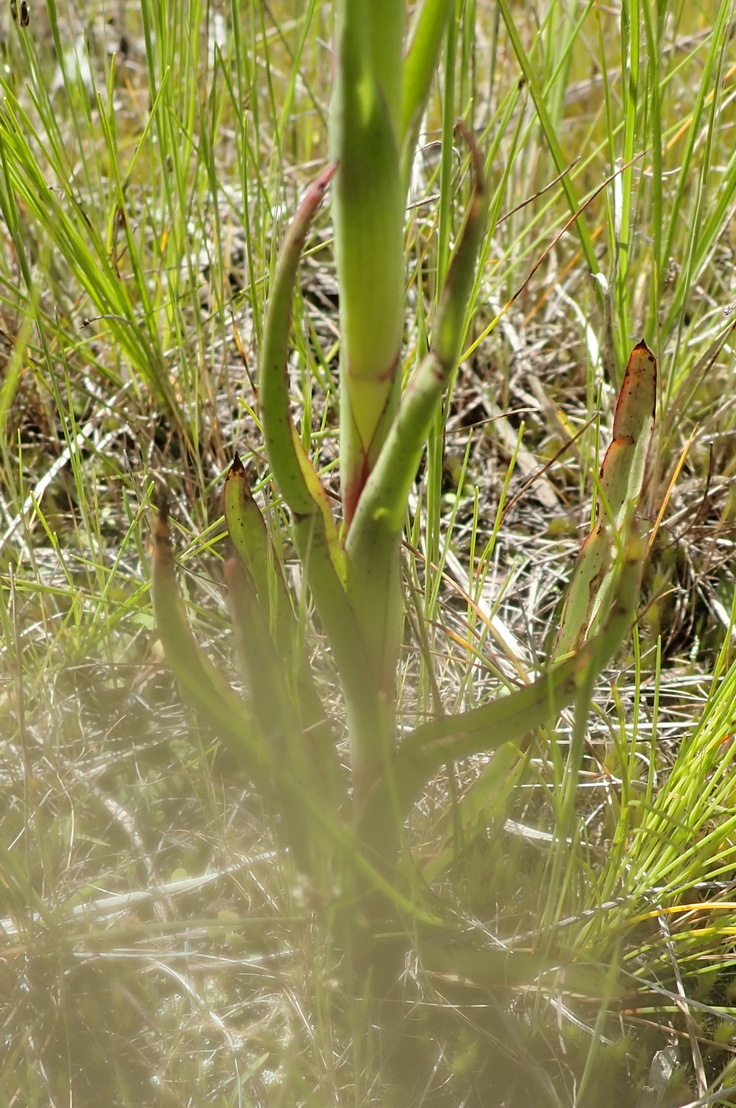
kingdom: Plantae
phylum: Tracheophyta
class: Liliopsida
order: Asparagales
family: Orchidaceae
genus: Disa
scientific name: Disa bracteata
